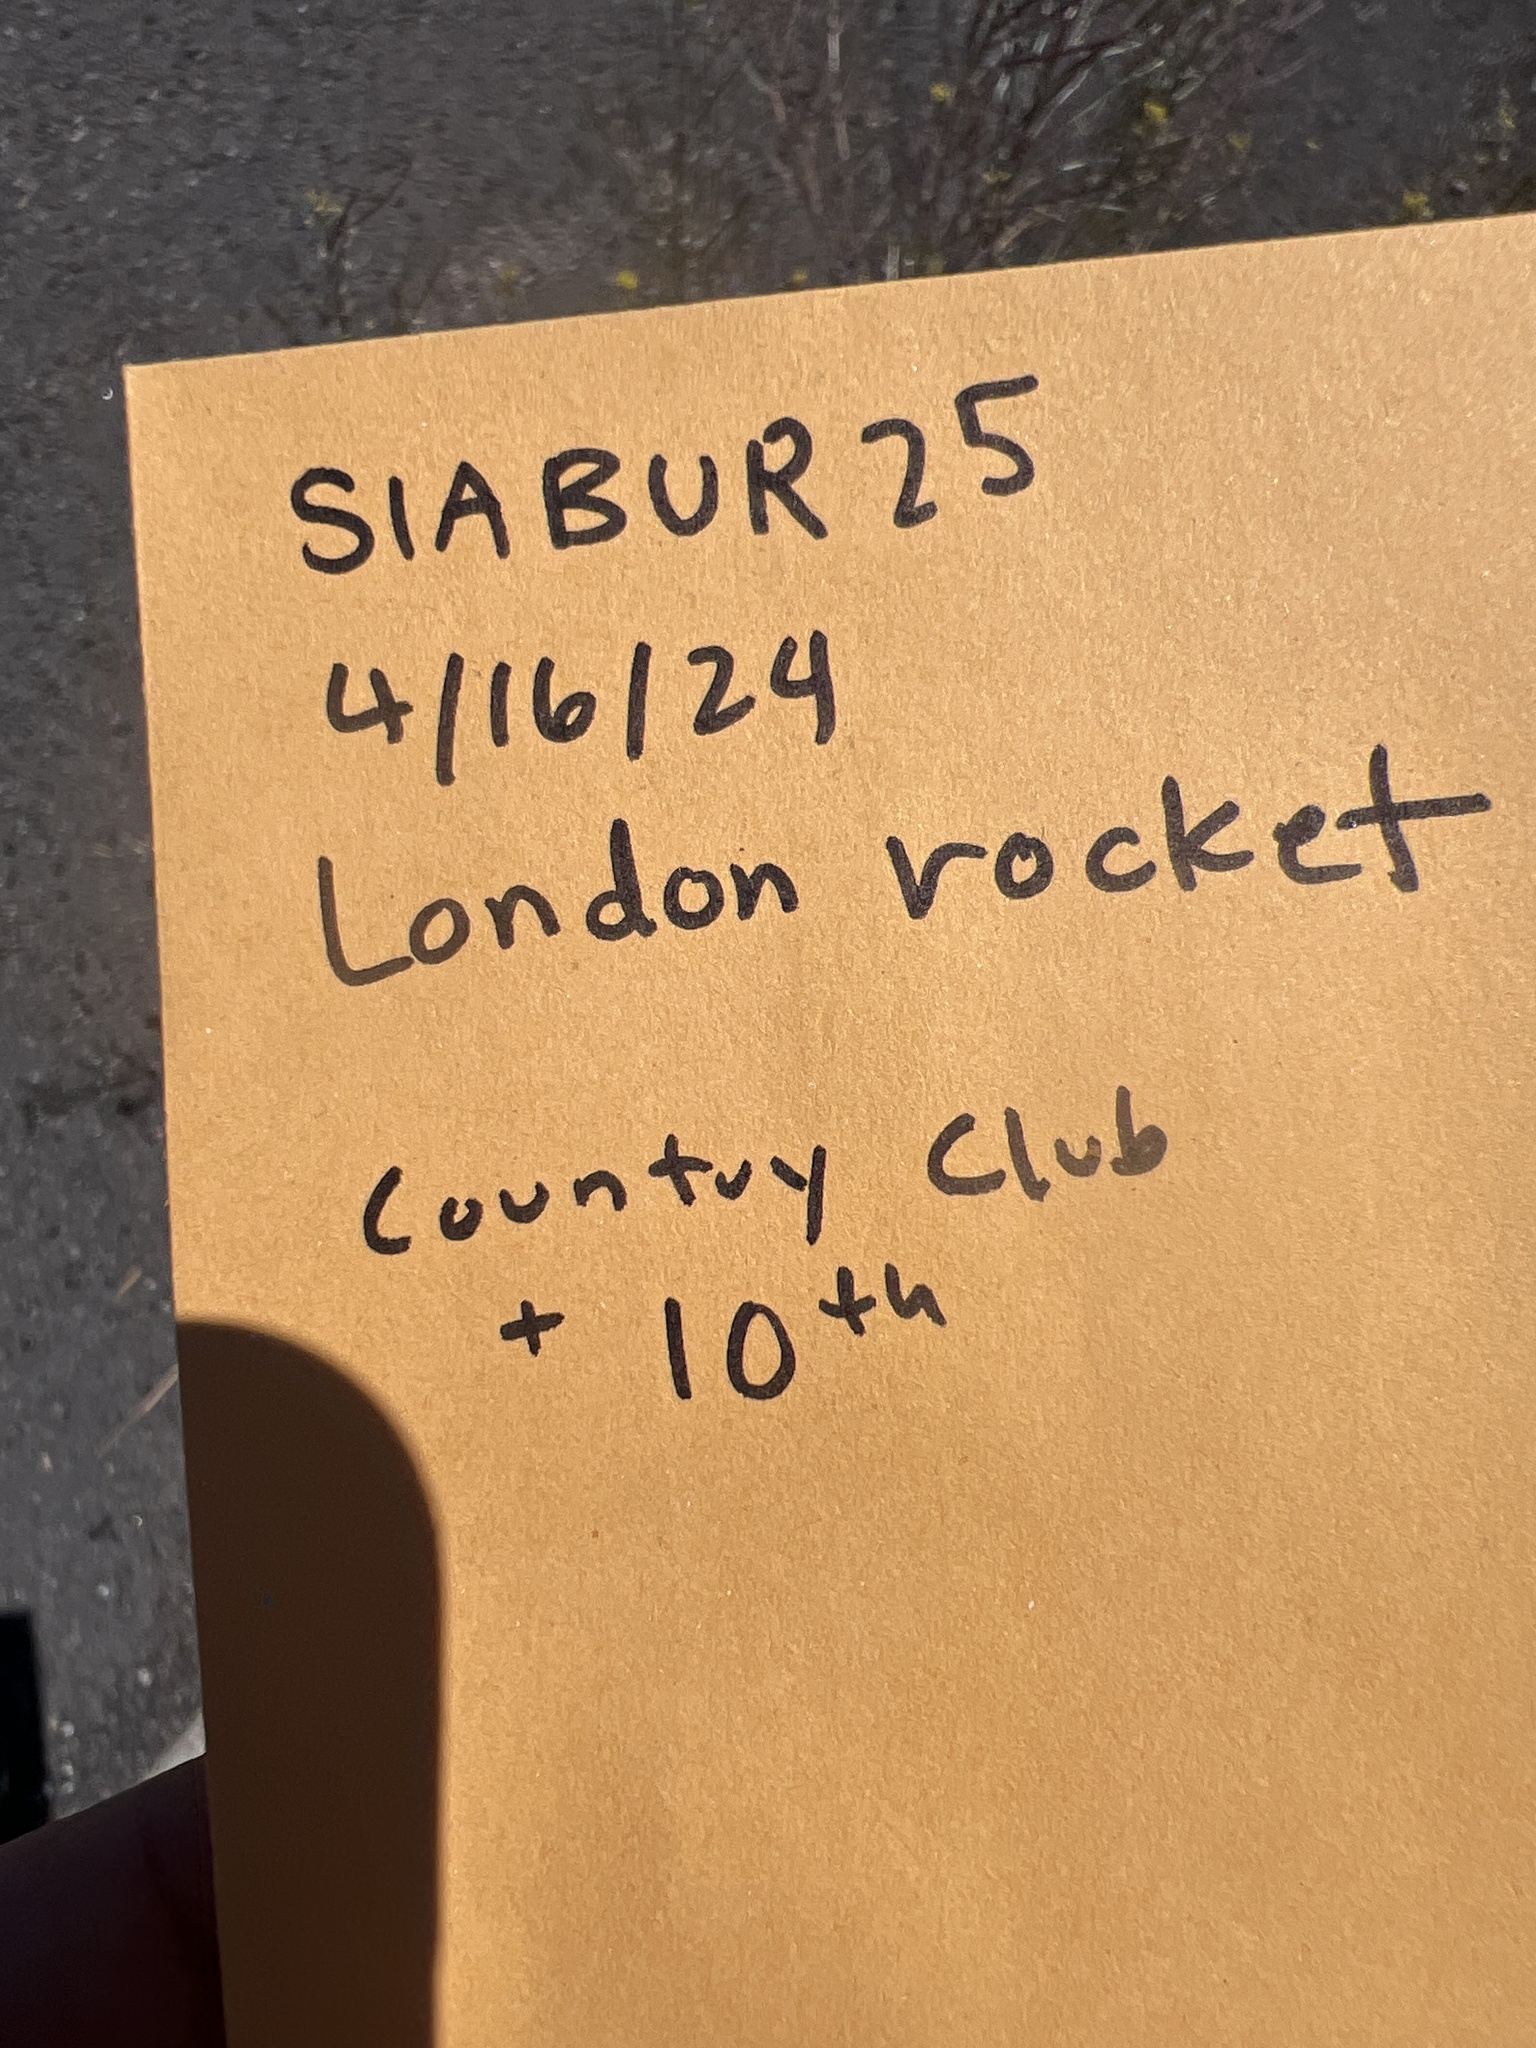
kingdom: Plantae
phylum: Tracheophyta
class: Magnoliopsida
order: Brassicales
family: Brassicaceae
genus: Sisymbrium
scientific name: Sisymbrium irio
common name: London rocket
